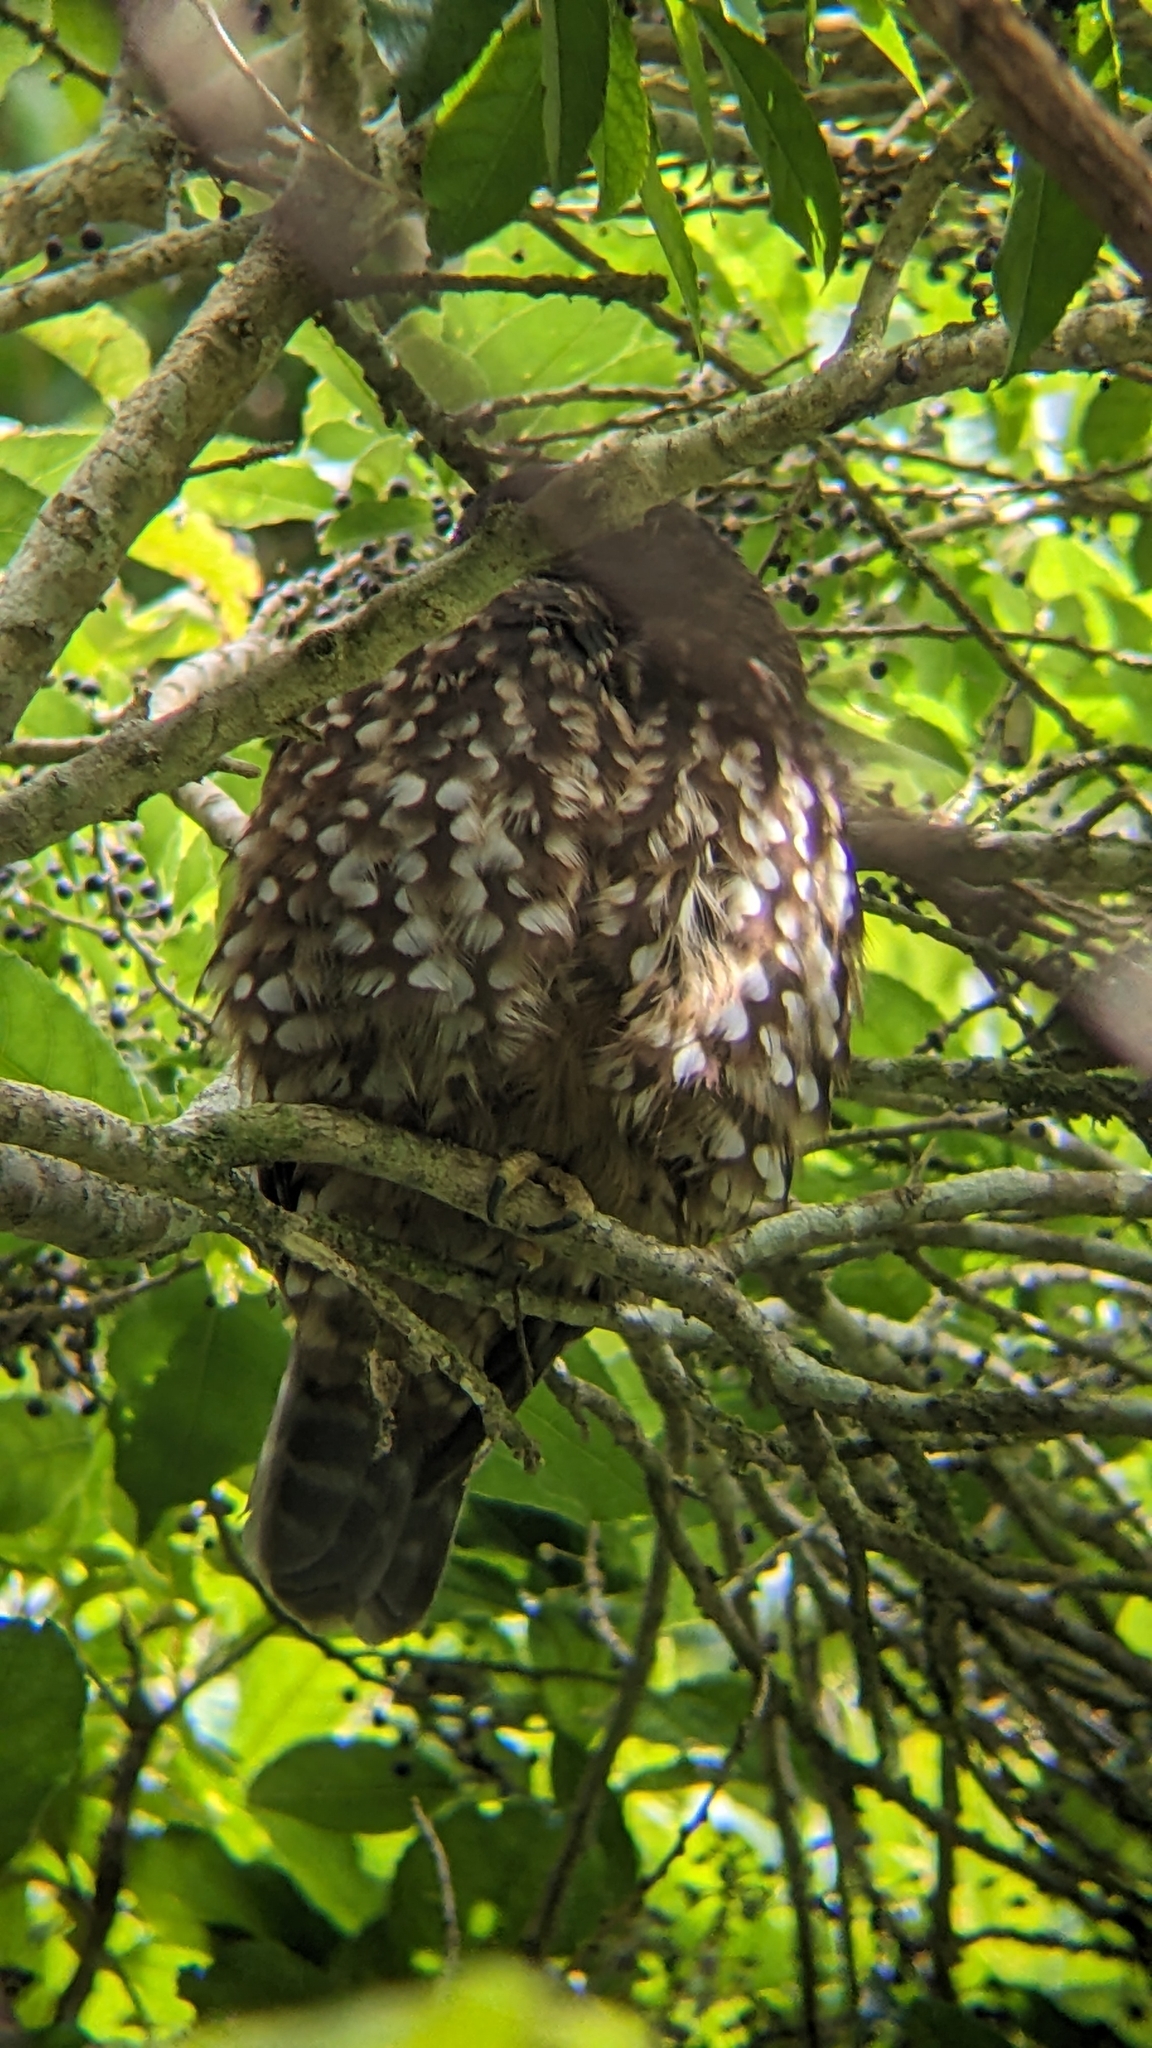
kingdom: Animalia
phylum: Chordata
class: Aves
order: Strigiformes
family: Strigidae
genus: Ninox
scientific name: Ninox novaeseelandiae
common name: Morepork
